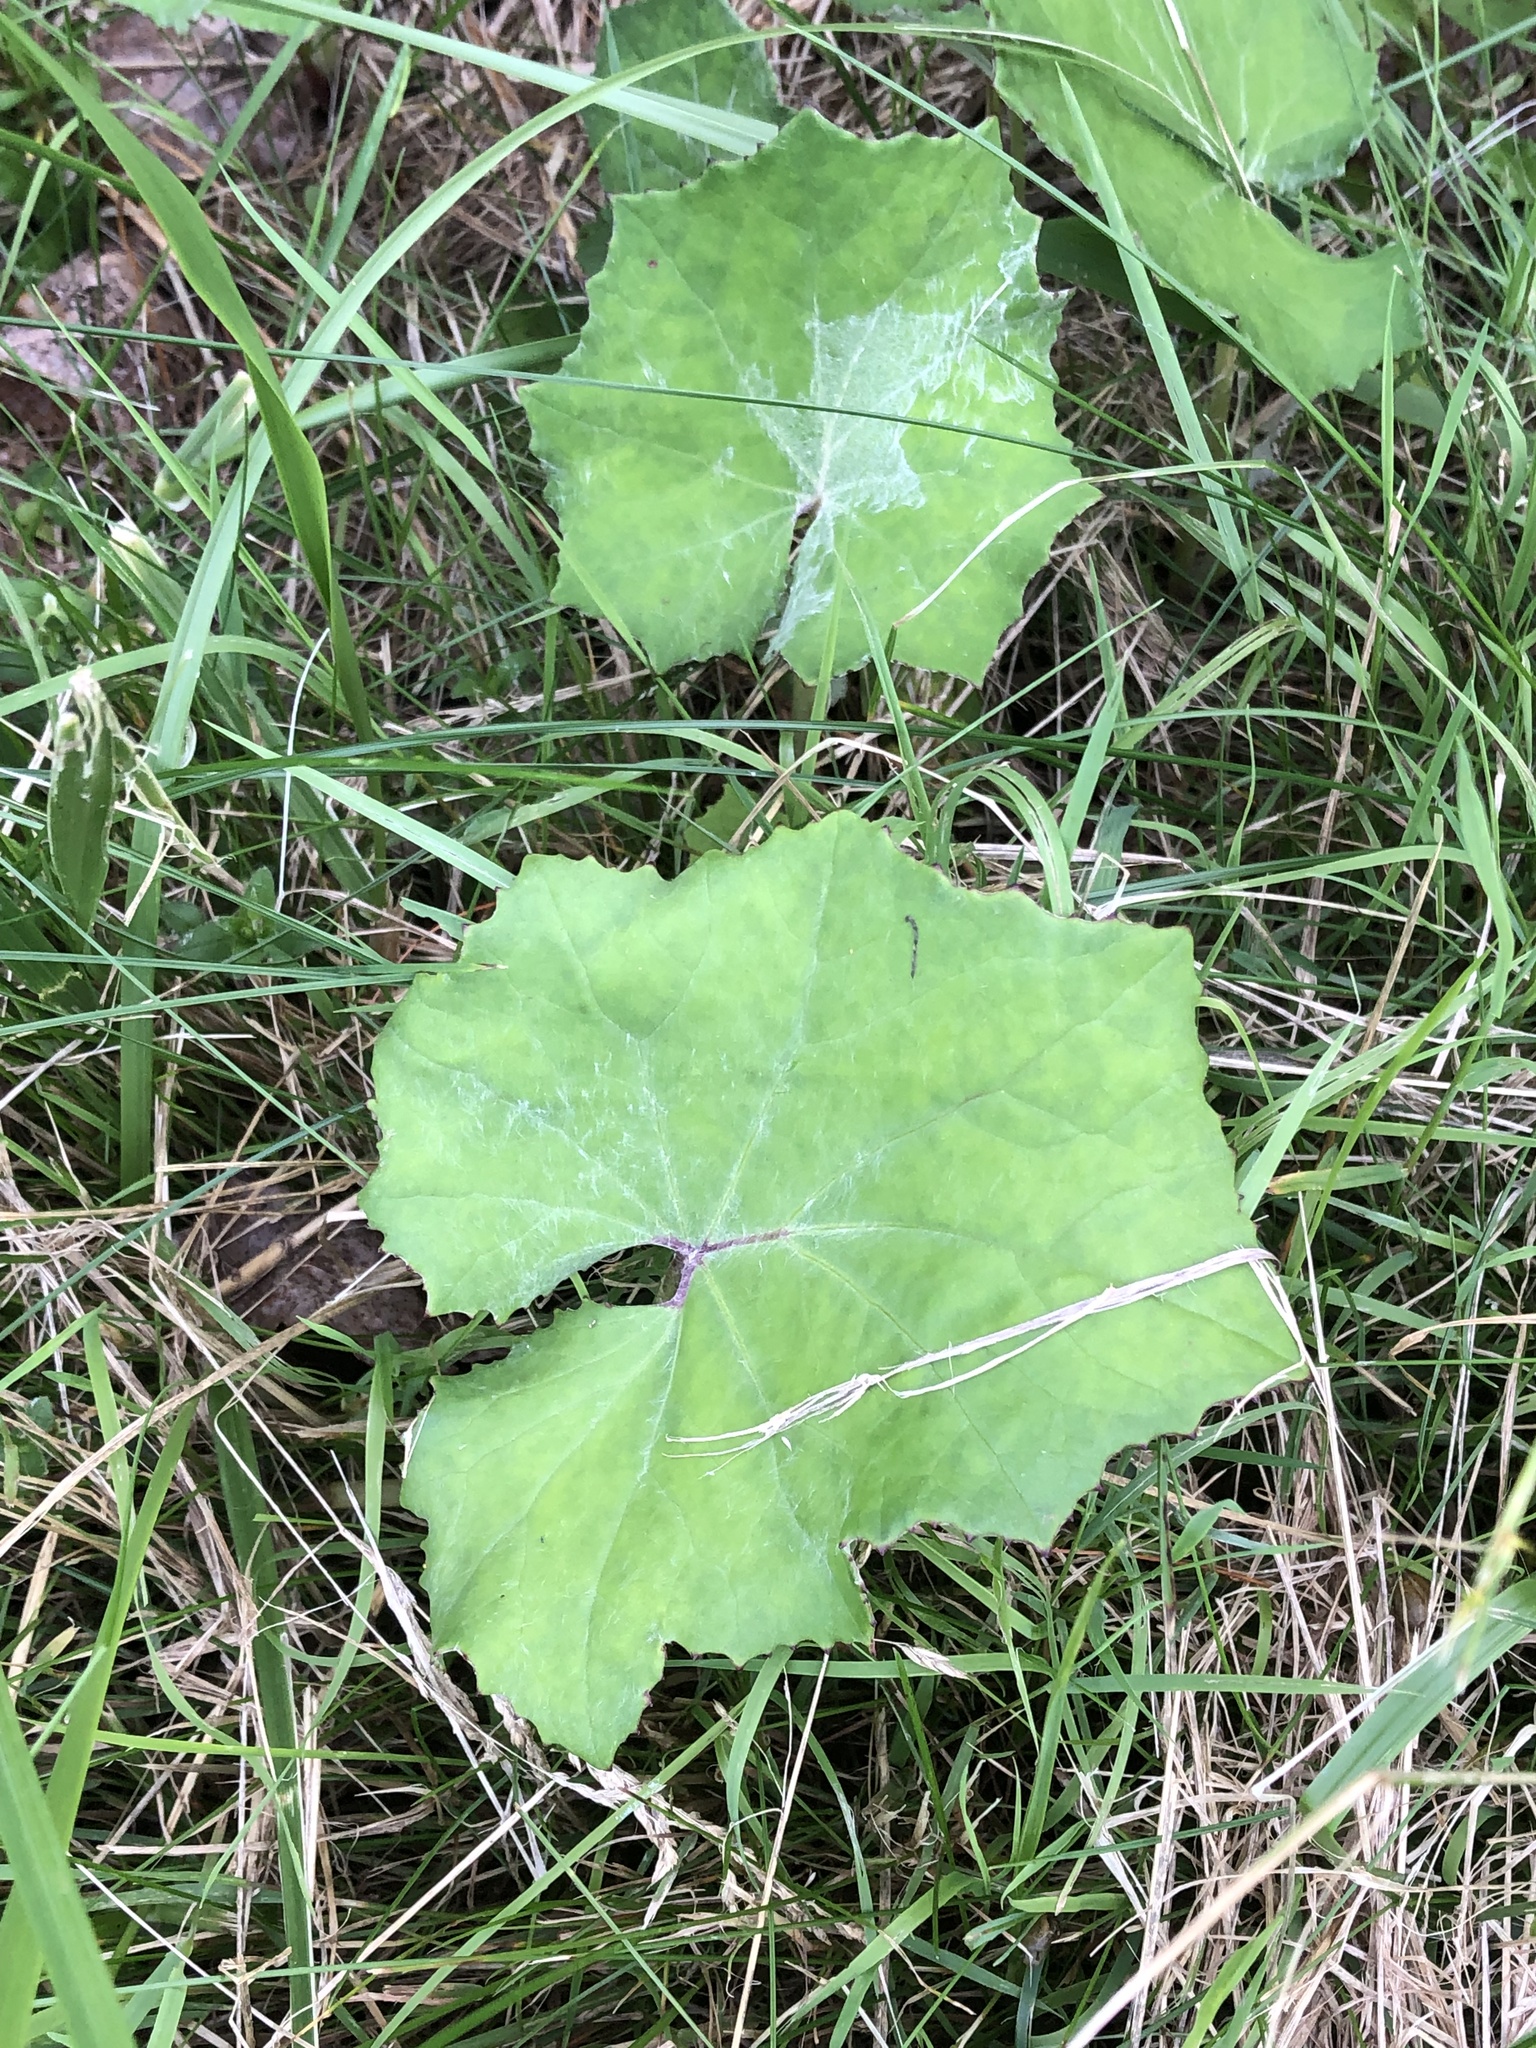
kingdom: Plantae
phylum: Tracheophyta
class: Magnoliopsida
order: Asterales
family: Asteraceae
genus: Tussilago
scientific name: Tussilago farfara
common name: Coltsfoot
